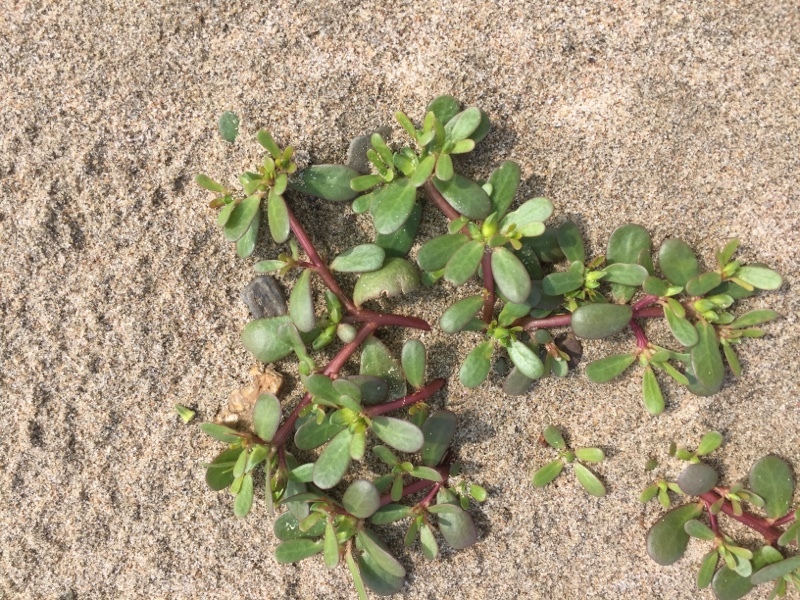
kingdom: Plantae
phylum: Tracheophyta
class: Magnoliopsida
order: Caryophyllales
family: Portulacaceae
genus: Portulaca
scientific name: Portulaca oleracea
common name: Common purslane
